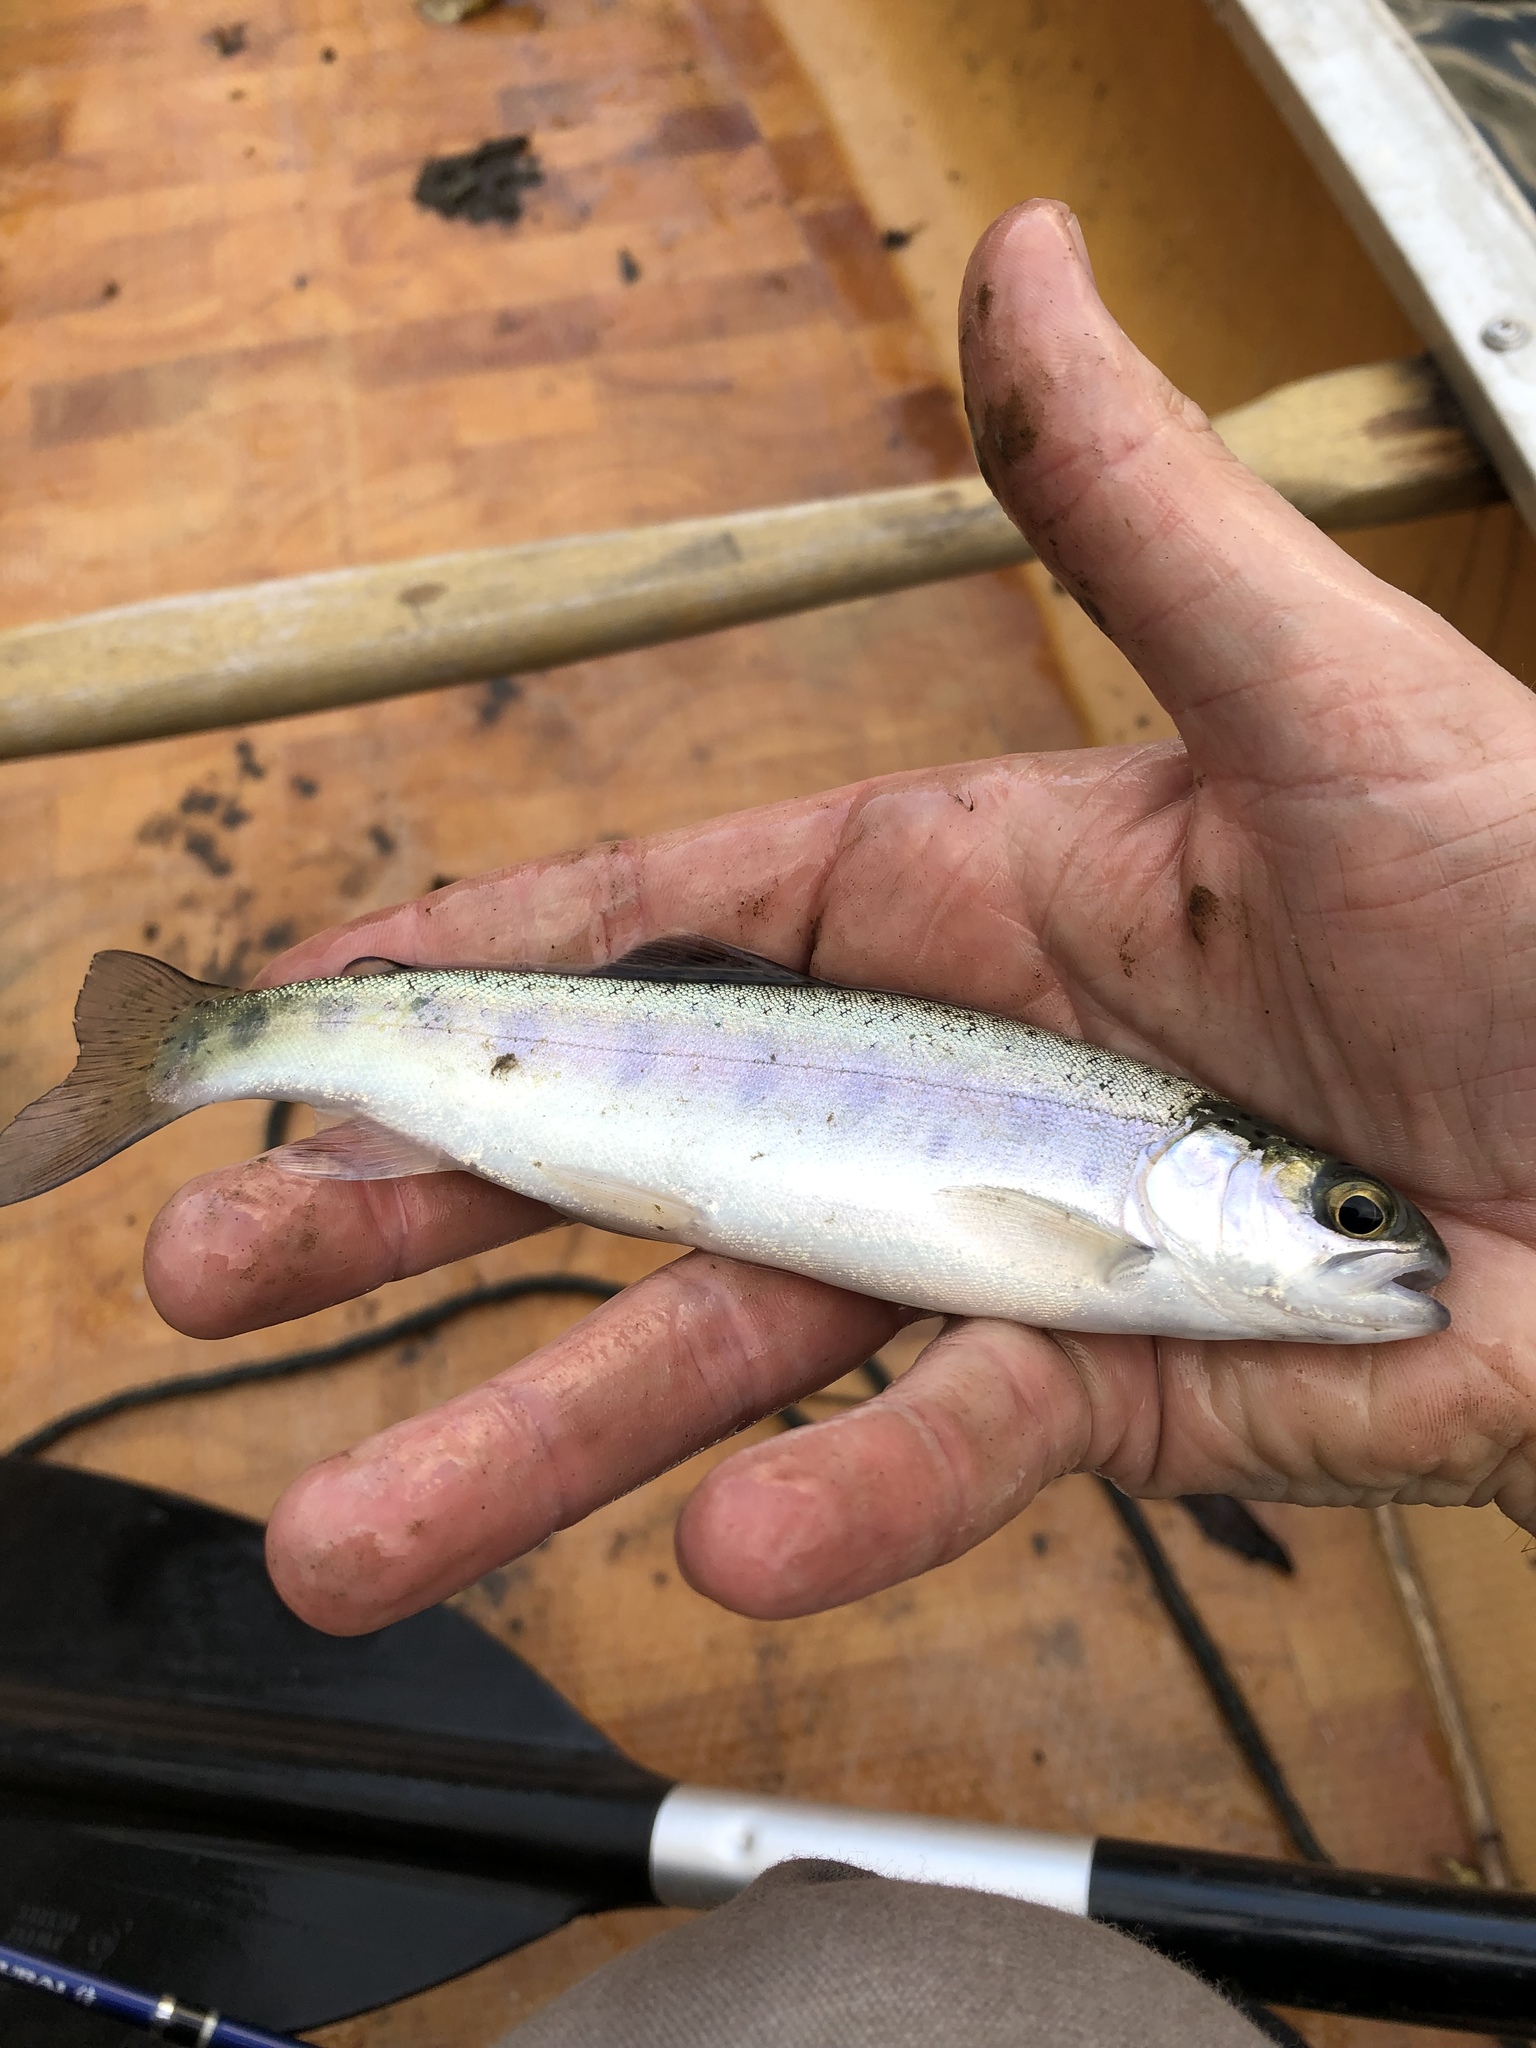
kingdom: Animalia
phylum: Chordata
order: Salmoniformes
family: Salmonidae
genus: Oncorhynchus
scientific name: Oncorhynchus mykiss
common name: Rainbow trout
